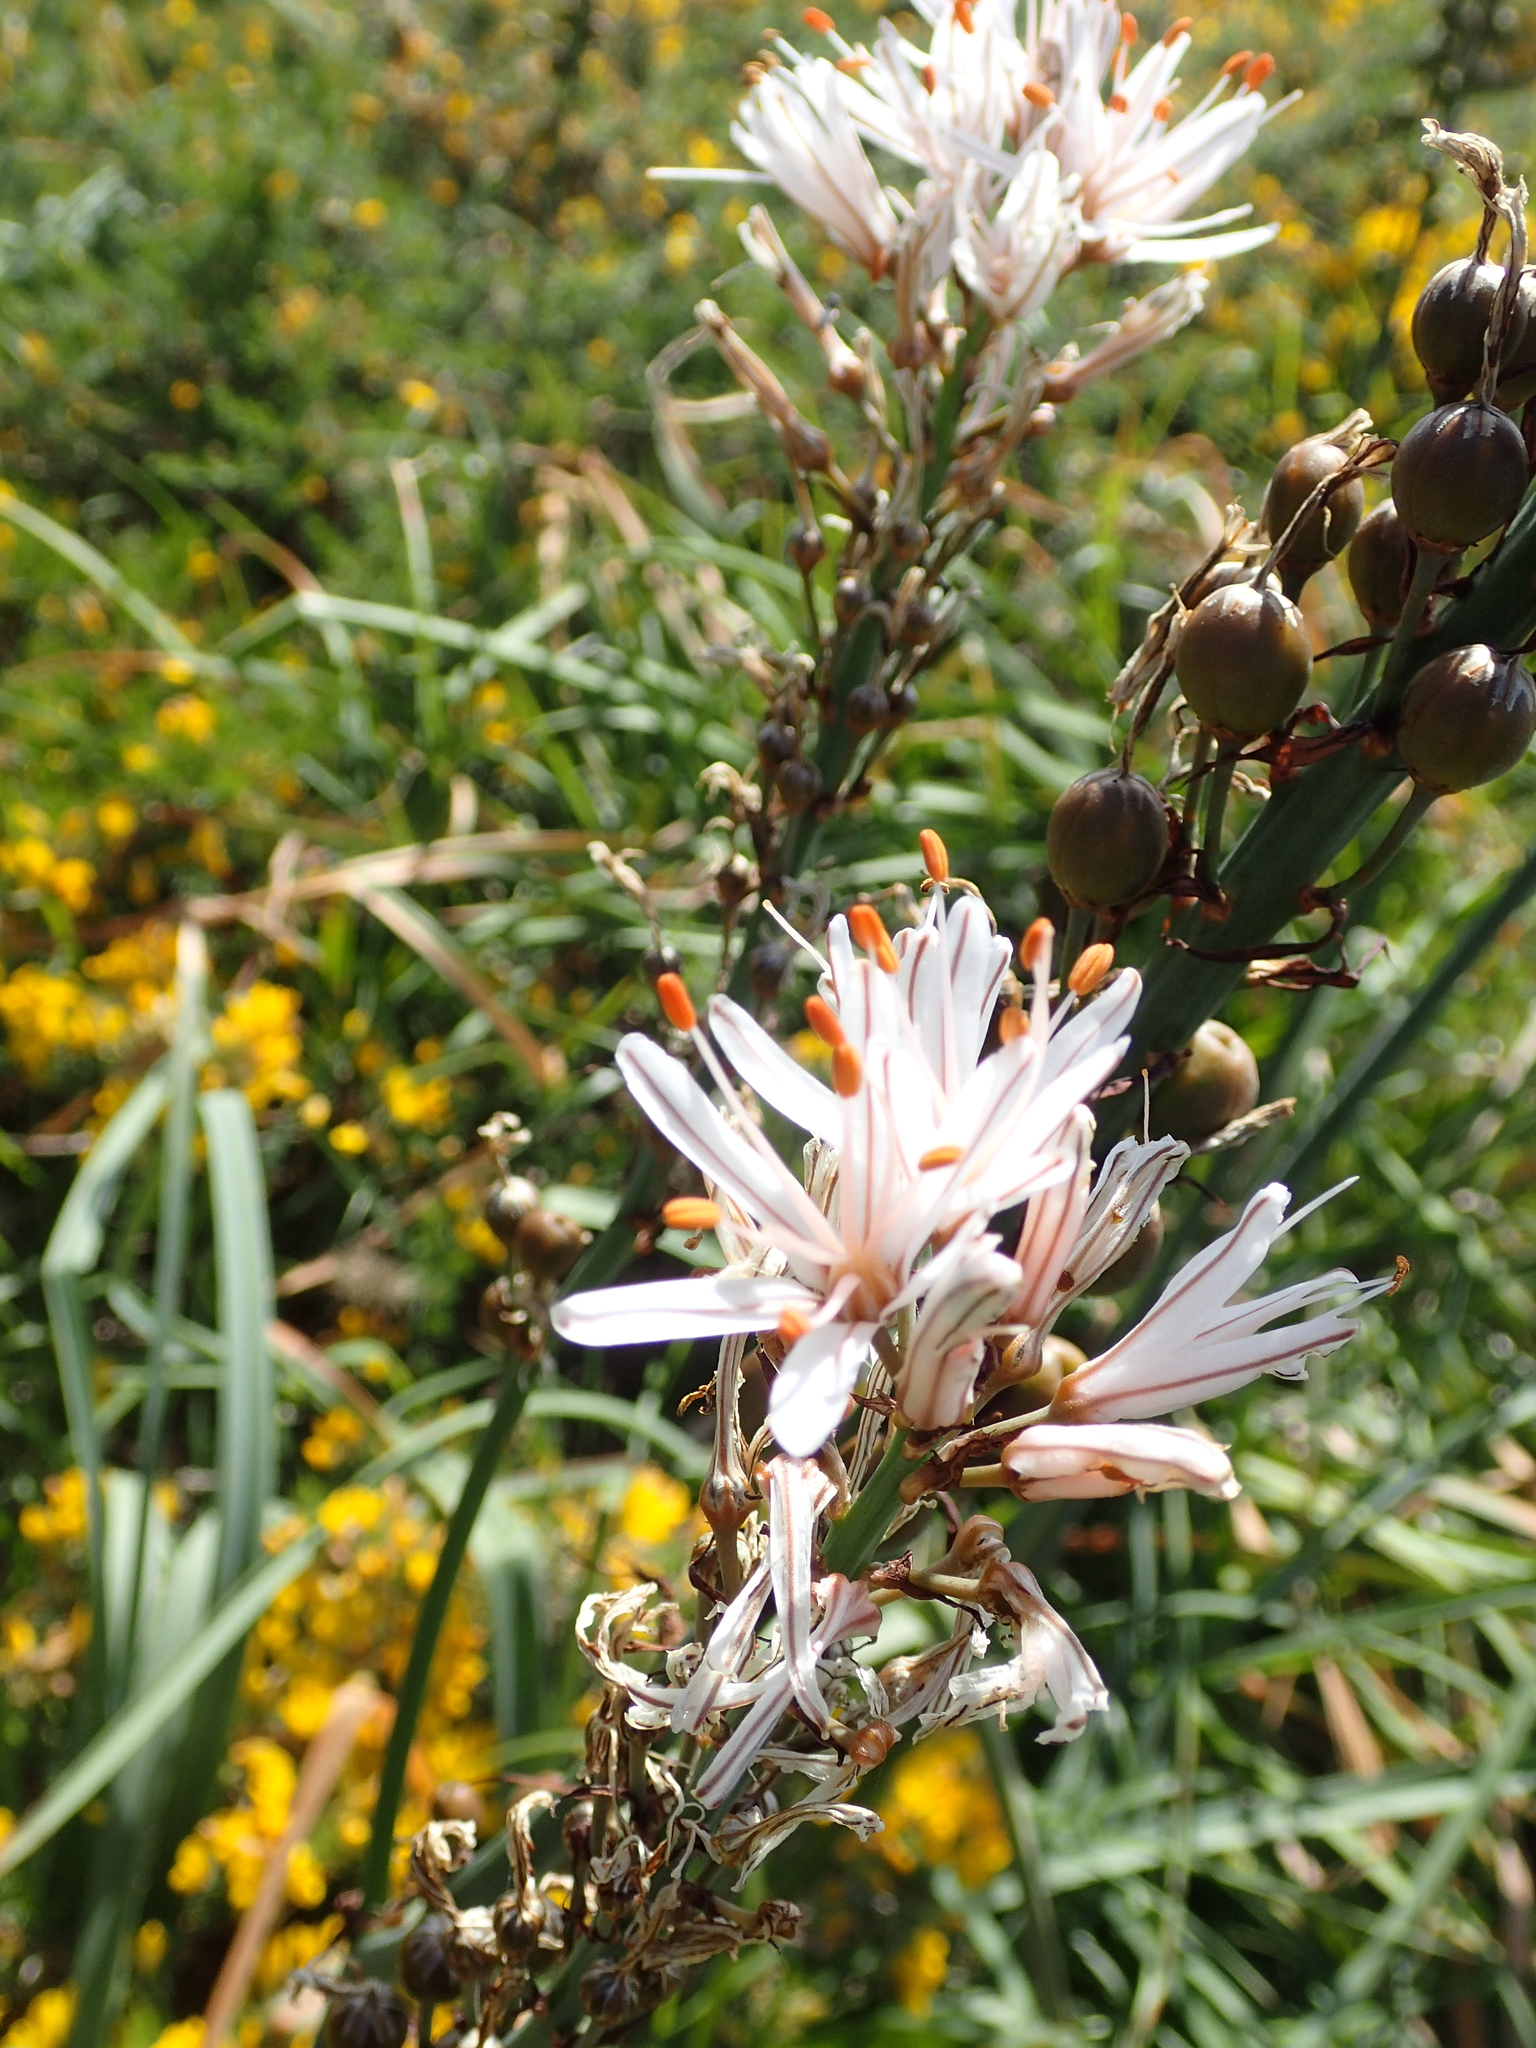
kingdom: Plantae
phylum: Tracheophyta
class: Liliopsida
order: Asparagales
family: Asphodelaceae
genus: Asphodelus
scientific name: Asphodelus albus
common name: White asphodel
